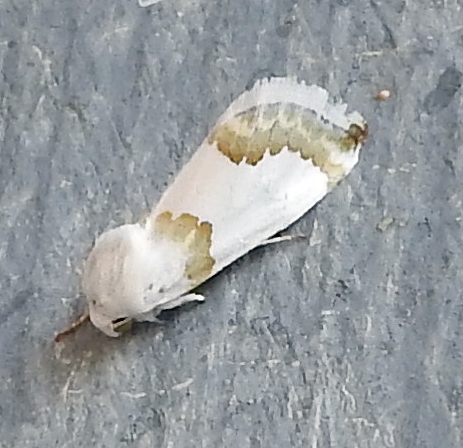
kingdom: Animalia
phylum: Arthropoda
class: Insecta
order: Lepidoptera
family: Noctuidae
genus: Schinia
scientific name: Schinia cumatilis
